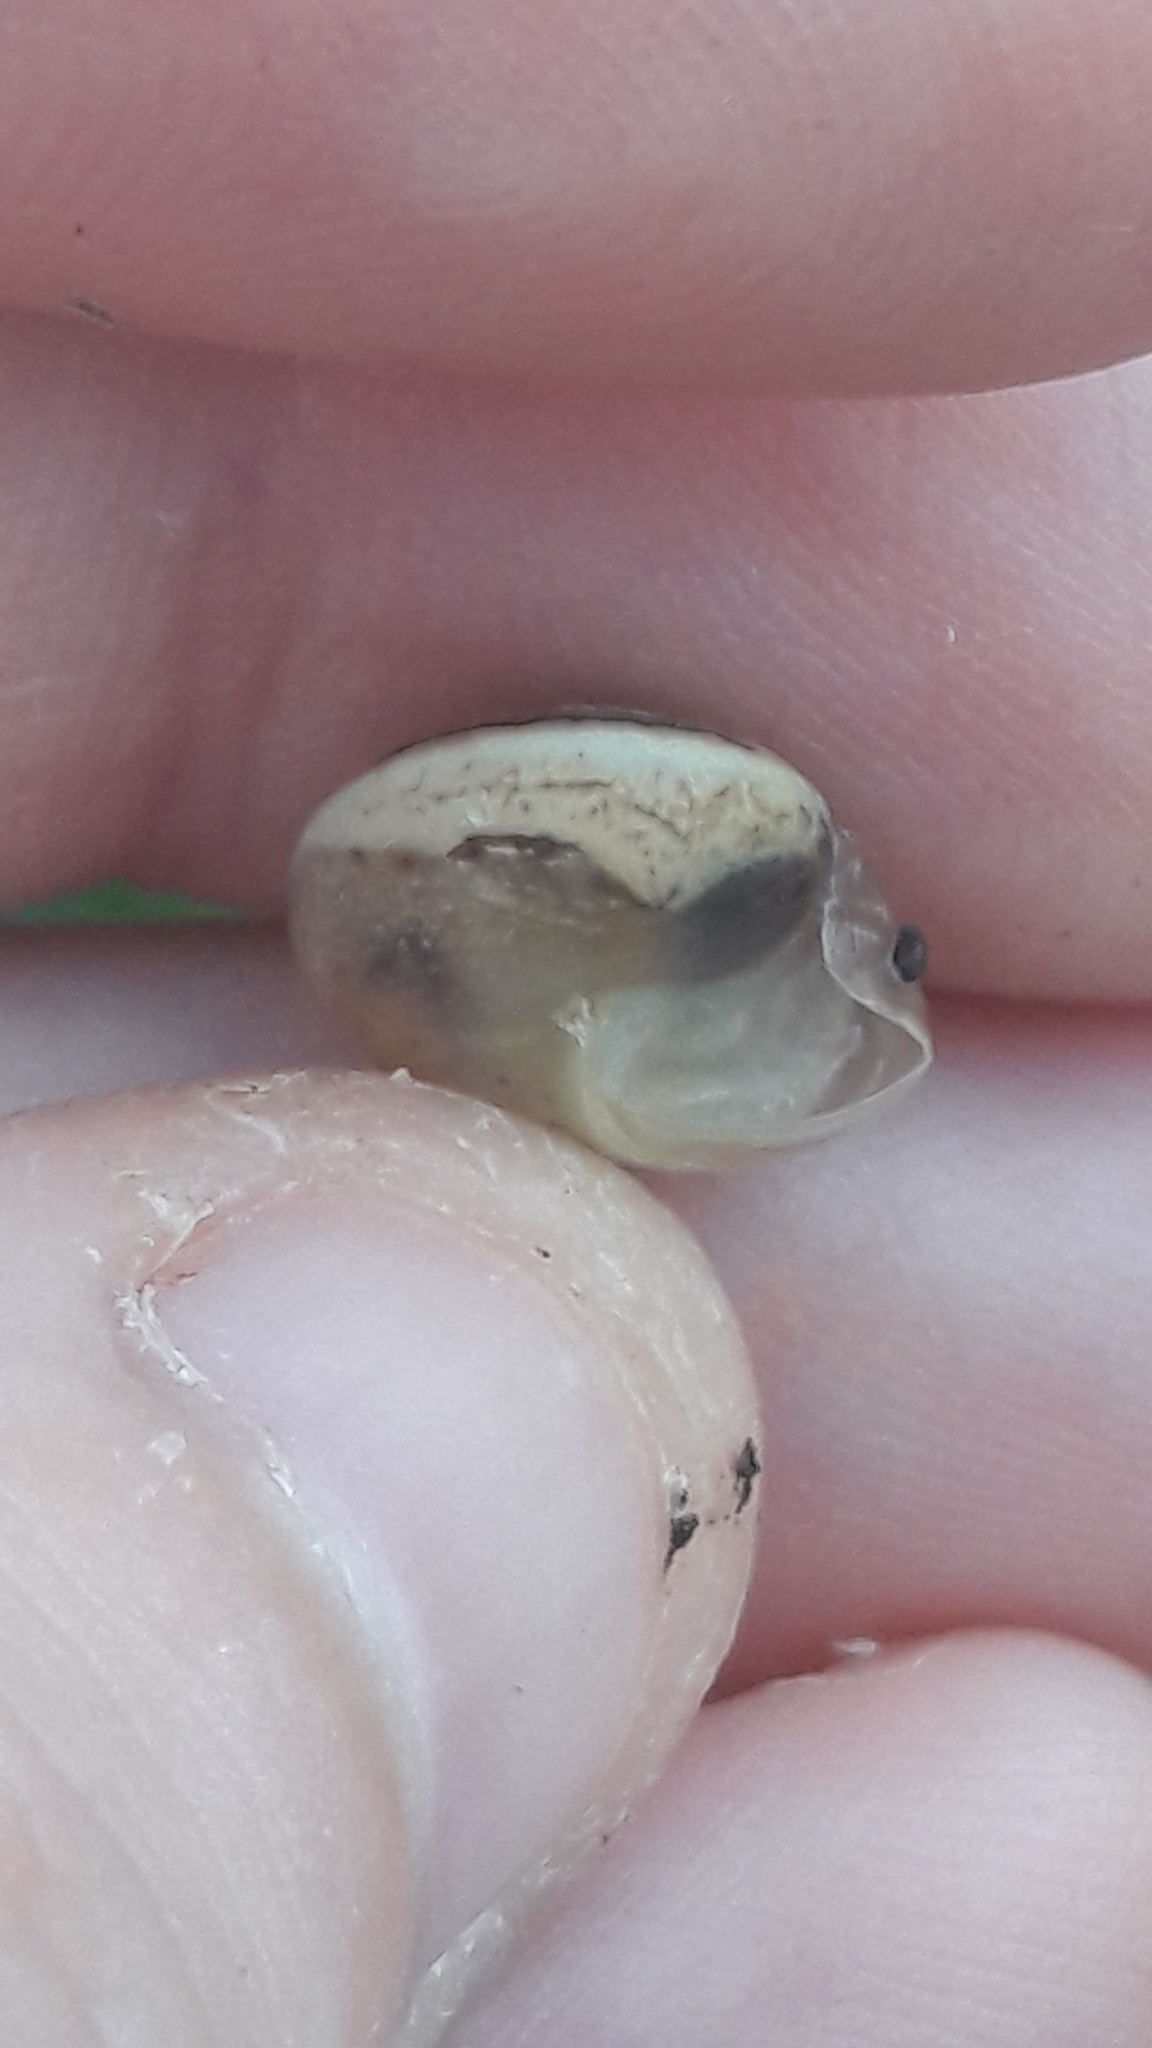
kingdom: Animalia
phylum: Mollusca
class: Gastropoda
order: Stylommatophora
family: Hygromiidae
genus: Monacha
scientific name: Monacha obstructa
